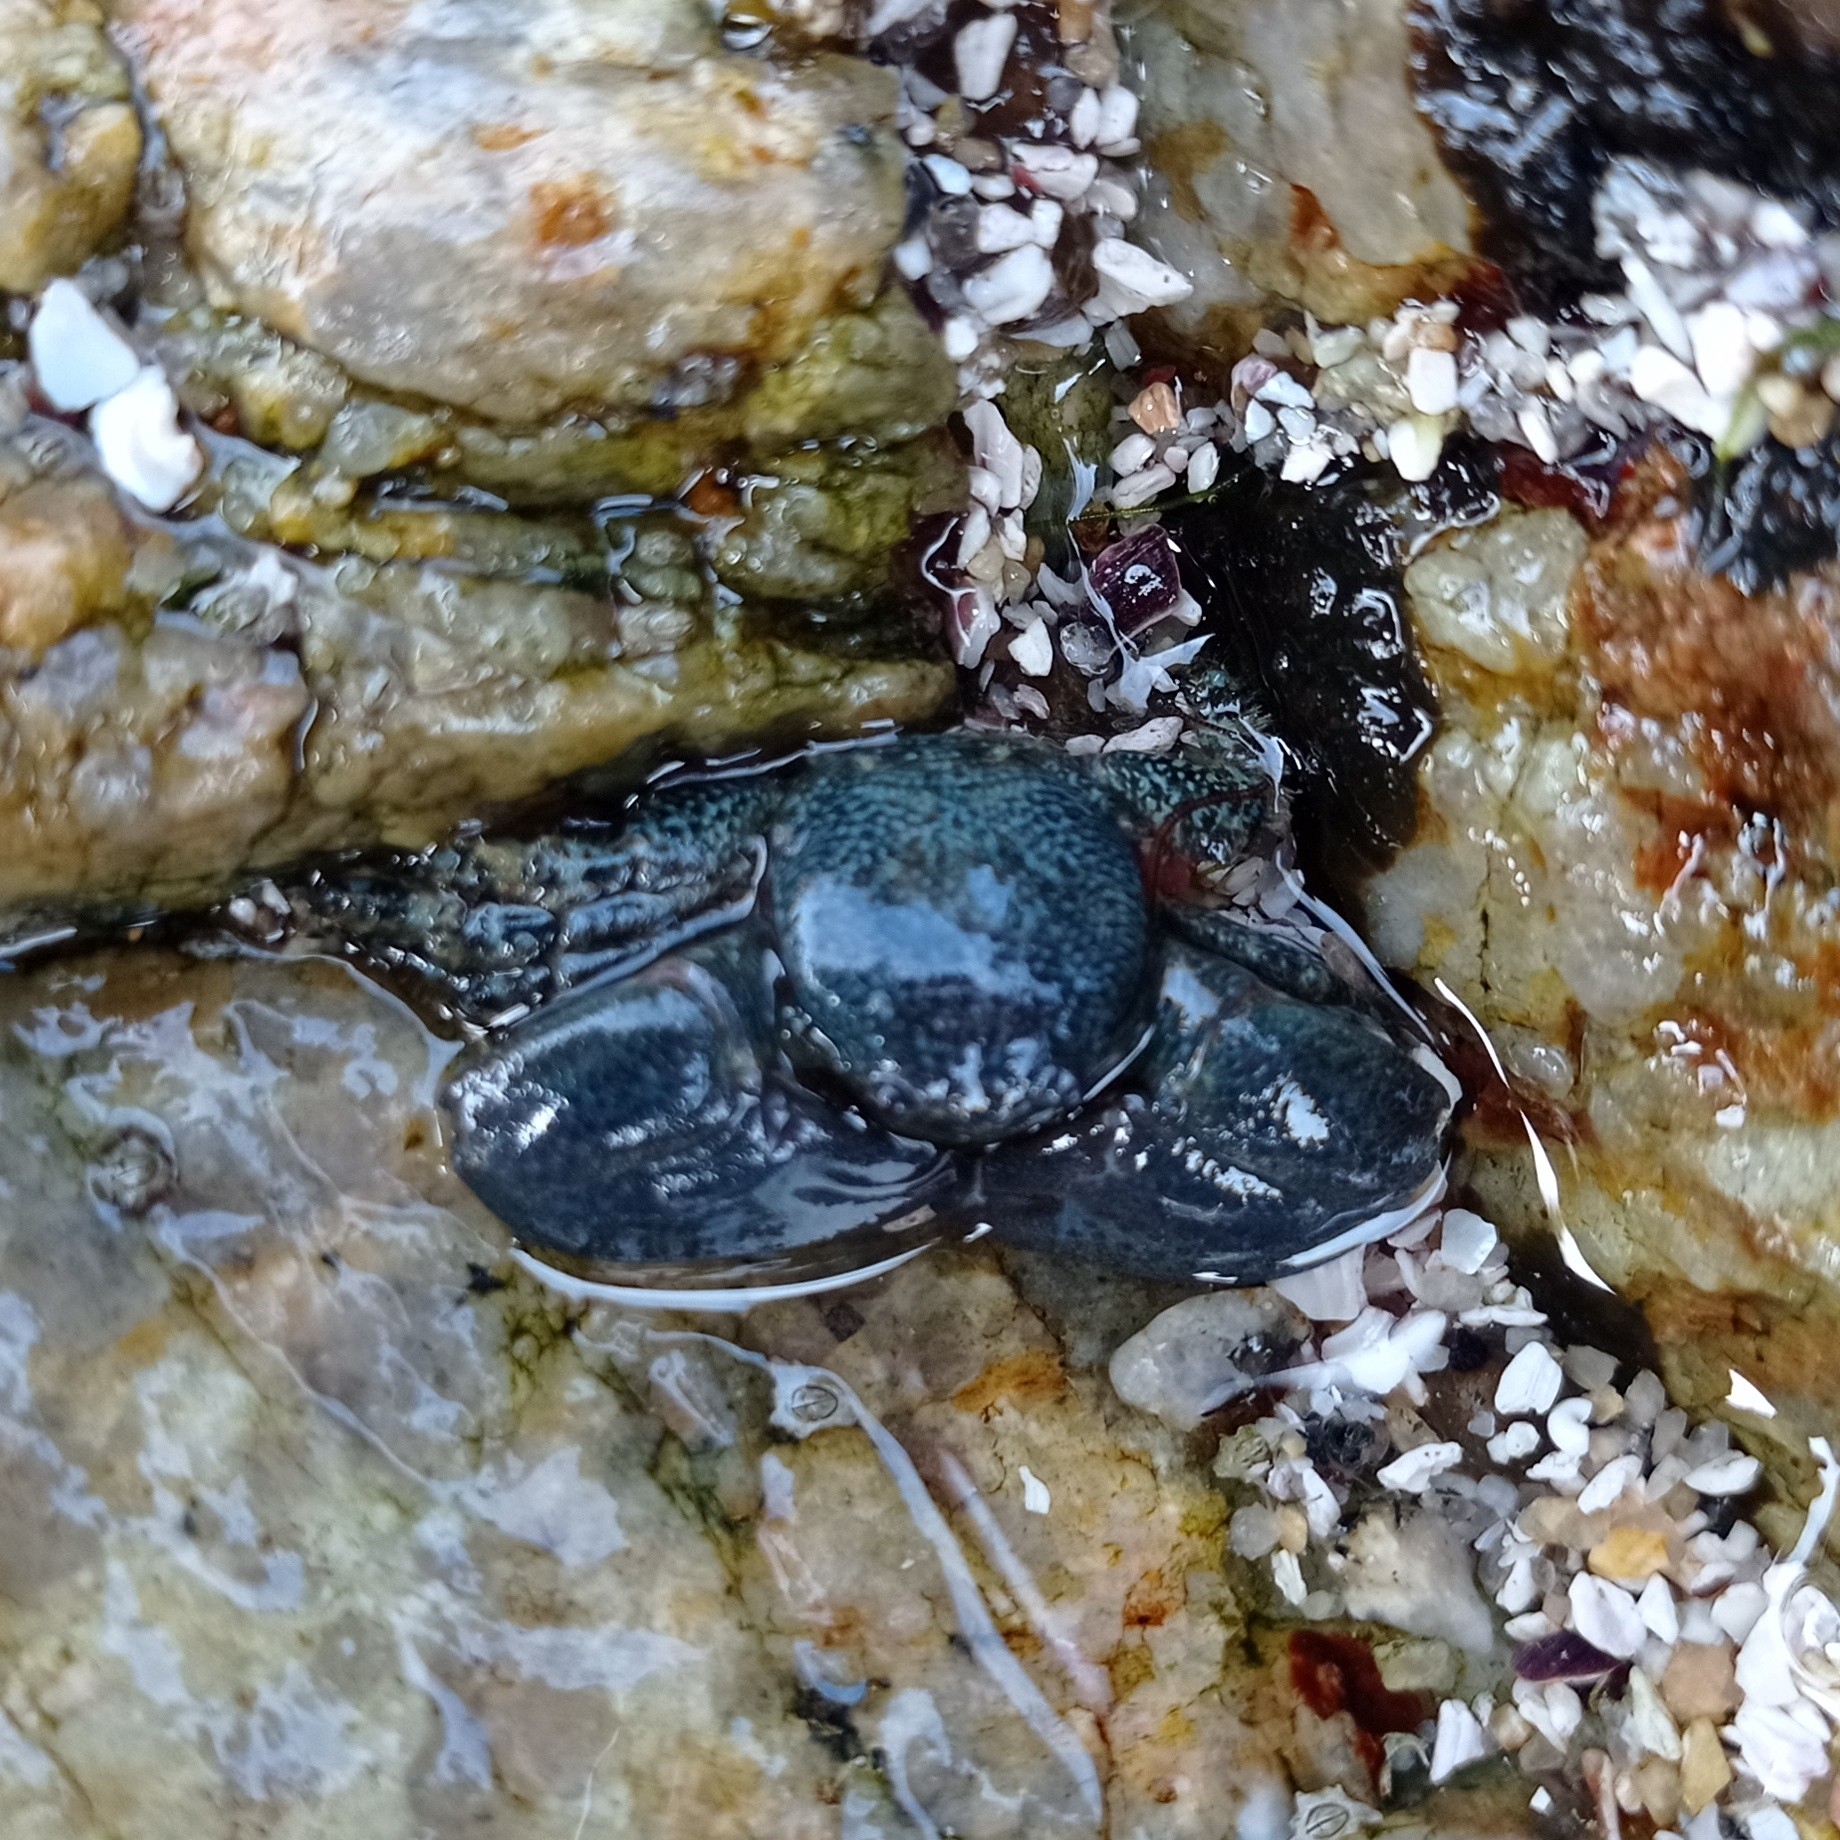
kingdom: Animalia
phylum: Arthropoda
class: Malacostraca
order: Decapoda
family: Porcellanidae
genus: Petrolisthes
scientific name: Petrolisthes granulosus
